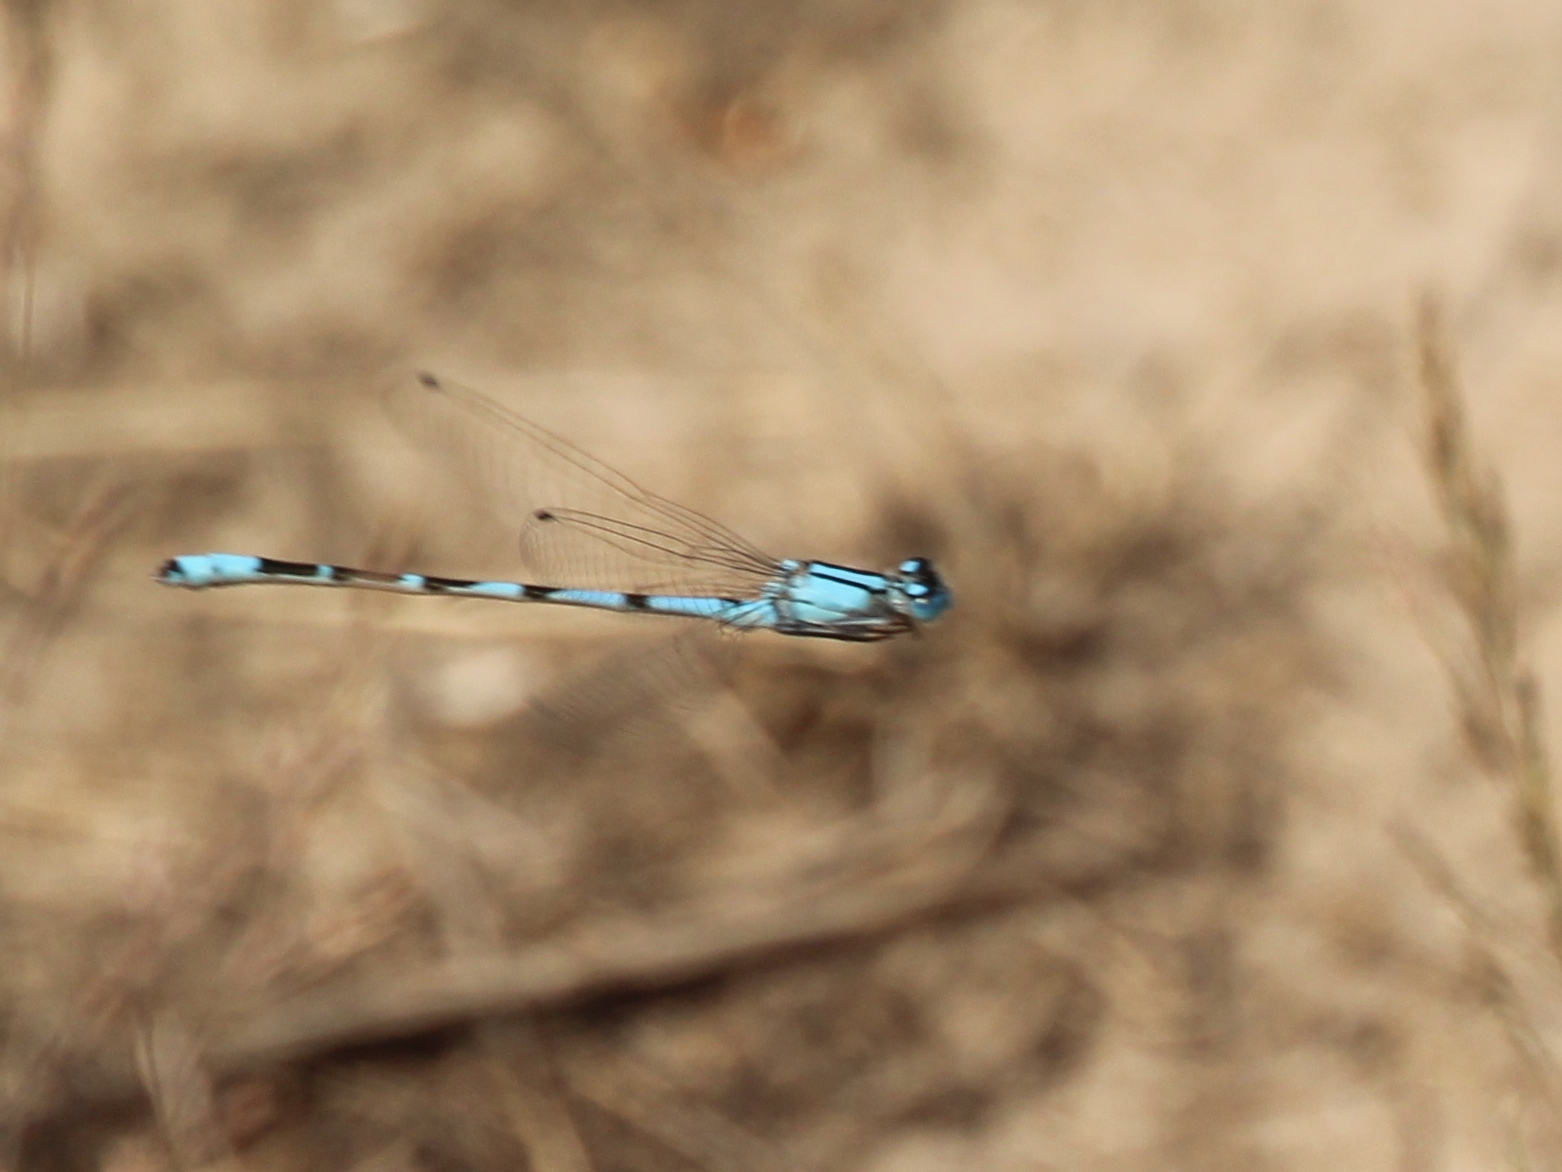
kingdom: Animalia
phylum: Arthropoda
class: Insecta
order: Odonata
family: Coenagrionidae
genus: Enallagma
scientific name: Enallagma cyathigerum
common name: Common blue damselfly
